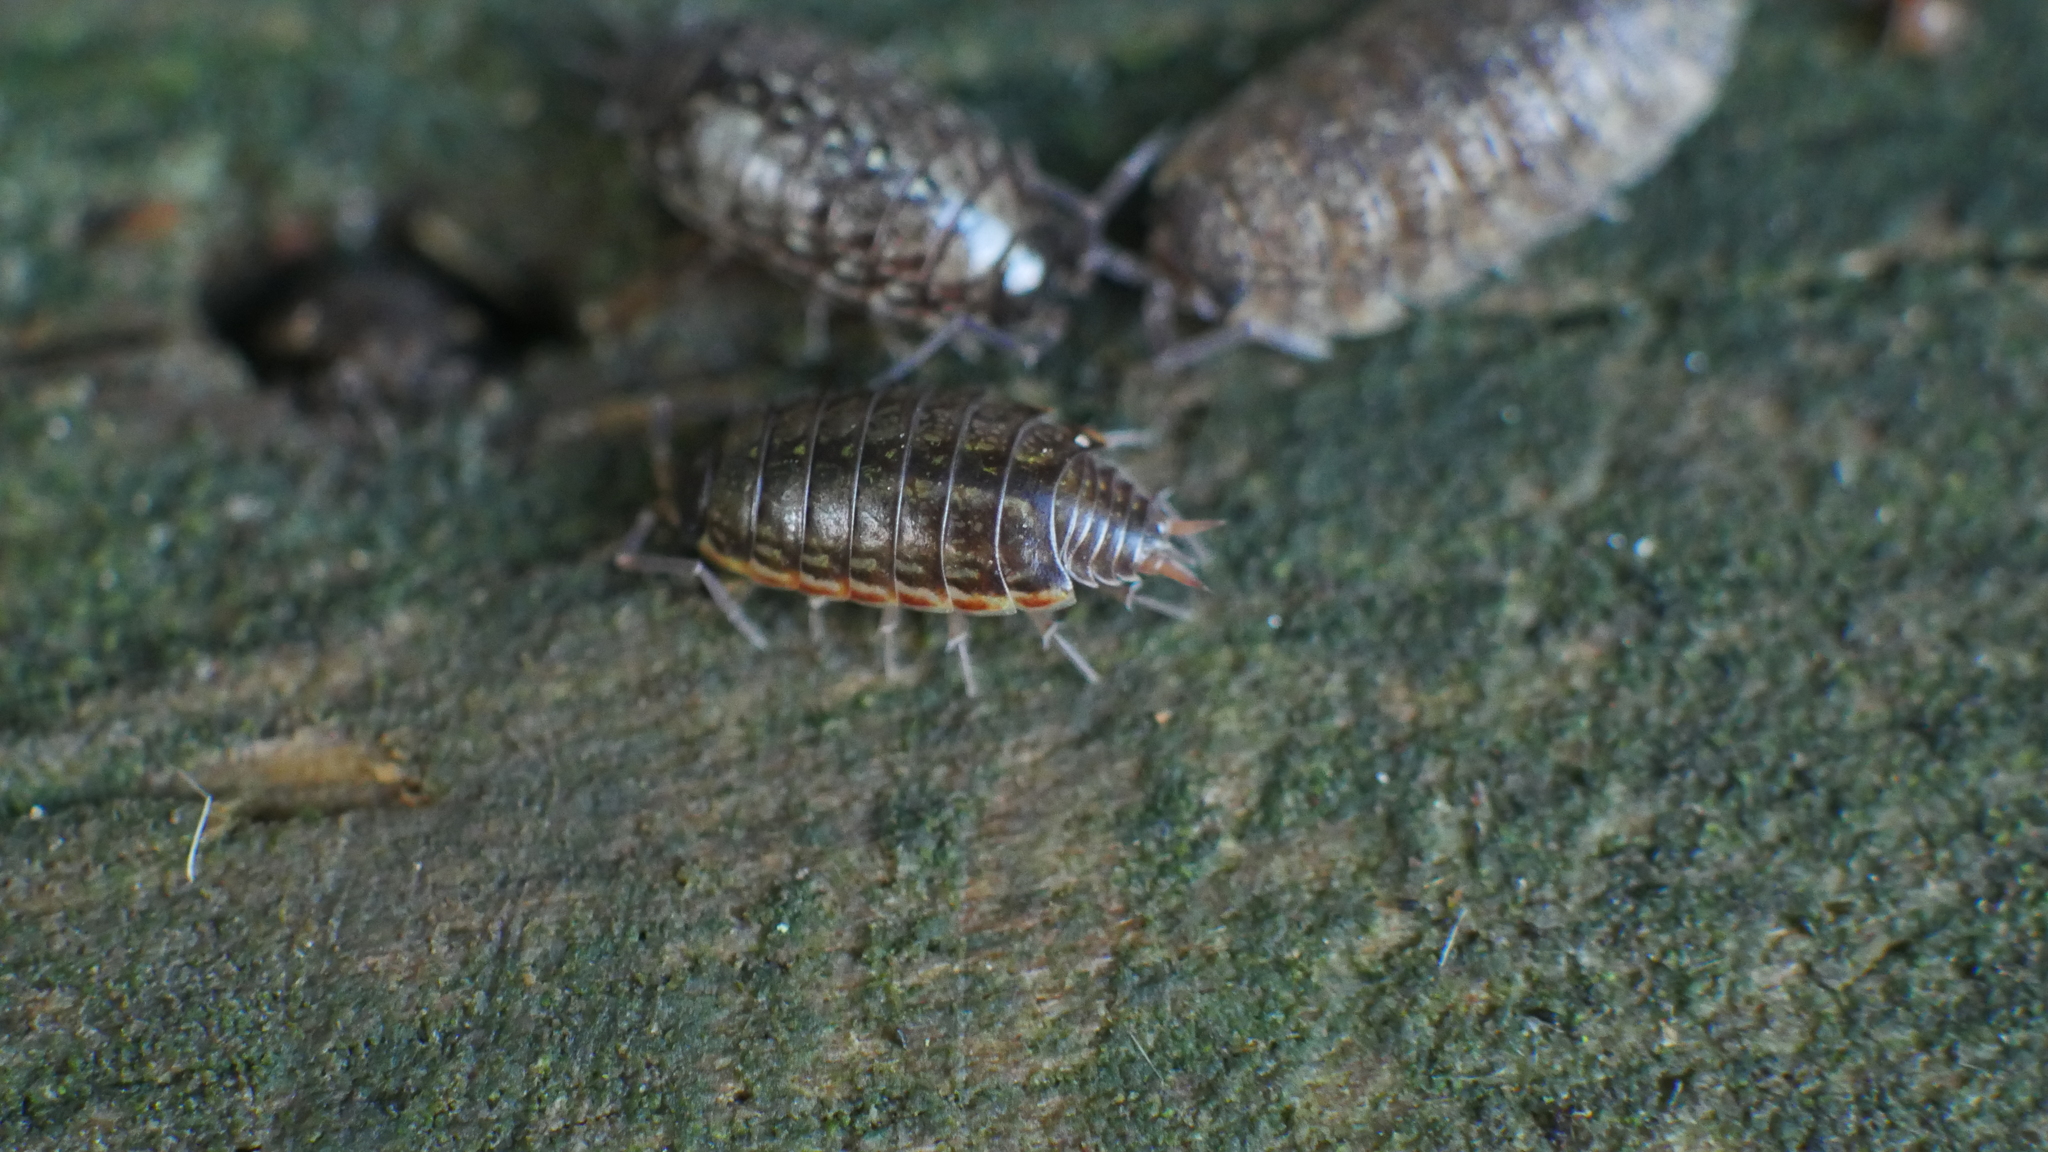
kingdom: Animalia
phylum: Arthropoda
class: Malacostraca
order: Isopoda
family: Philosciidae
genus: Philoscia
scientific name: Philoscia muscorum
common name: Common striped woodlouse
